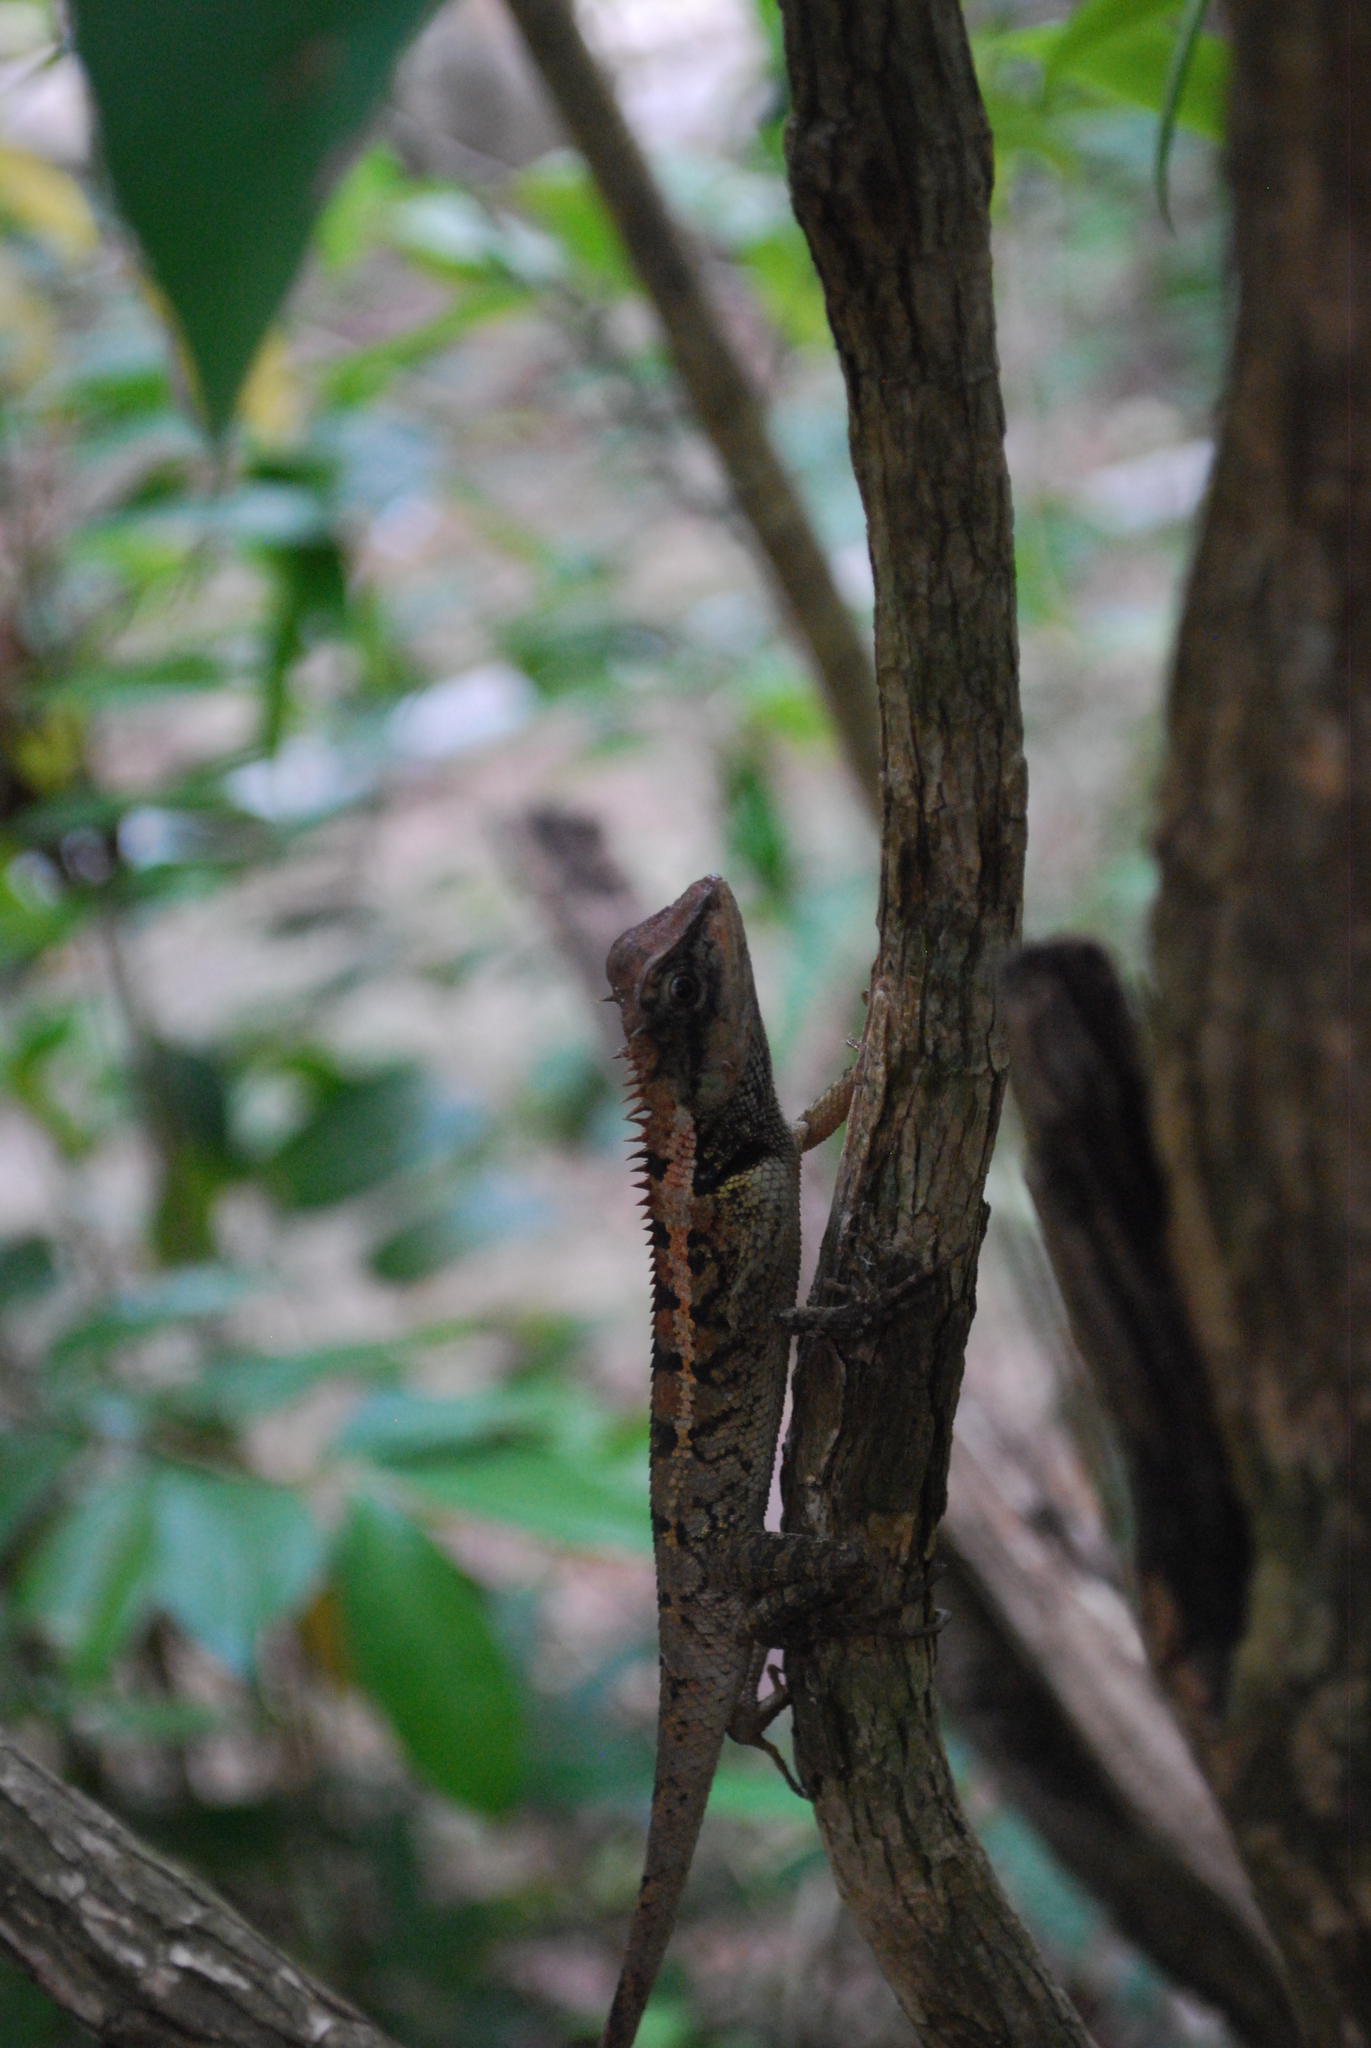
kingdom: Animalia
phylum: Chordata
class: Squamata
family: Agamidae
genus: Calotes
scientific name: Calotes emma
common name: Thailand bloodsucker
